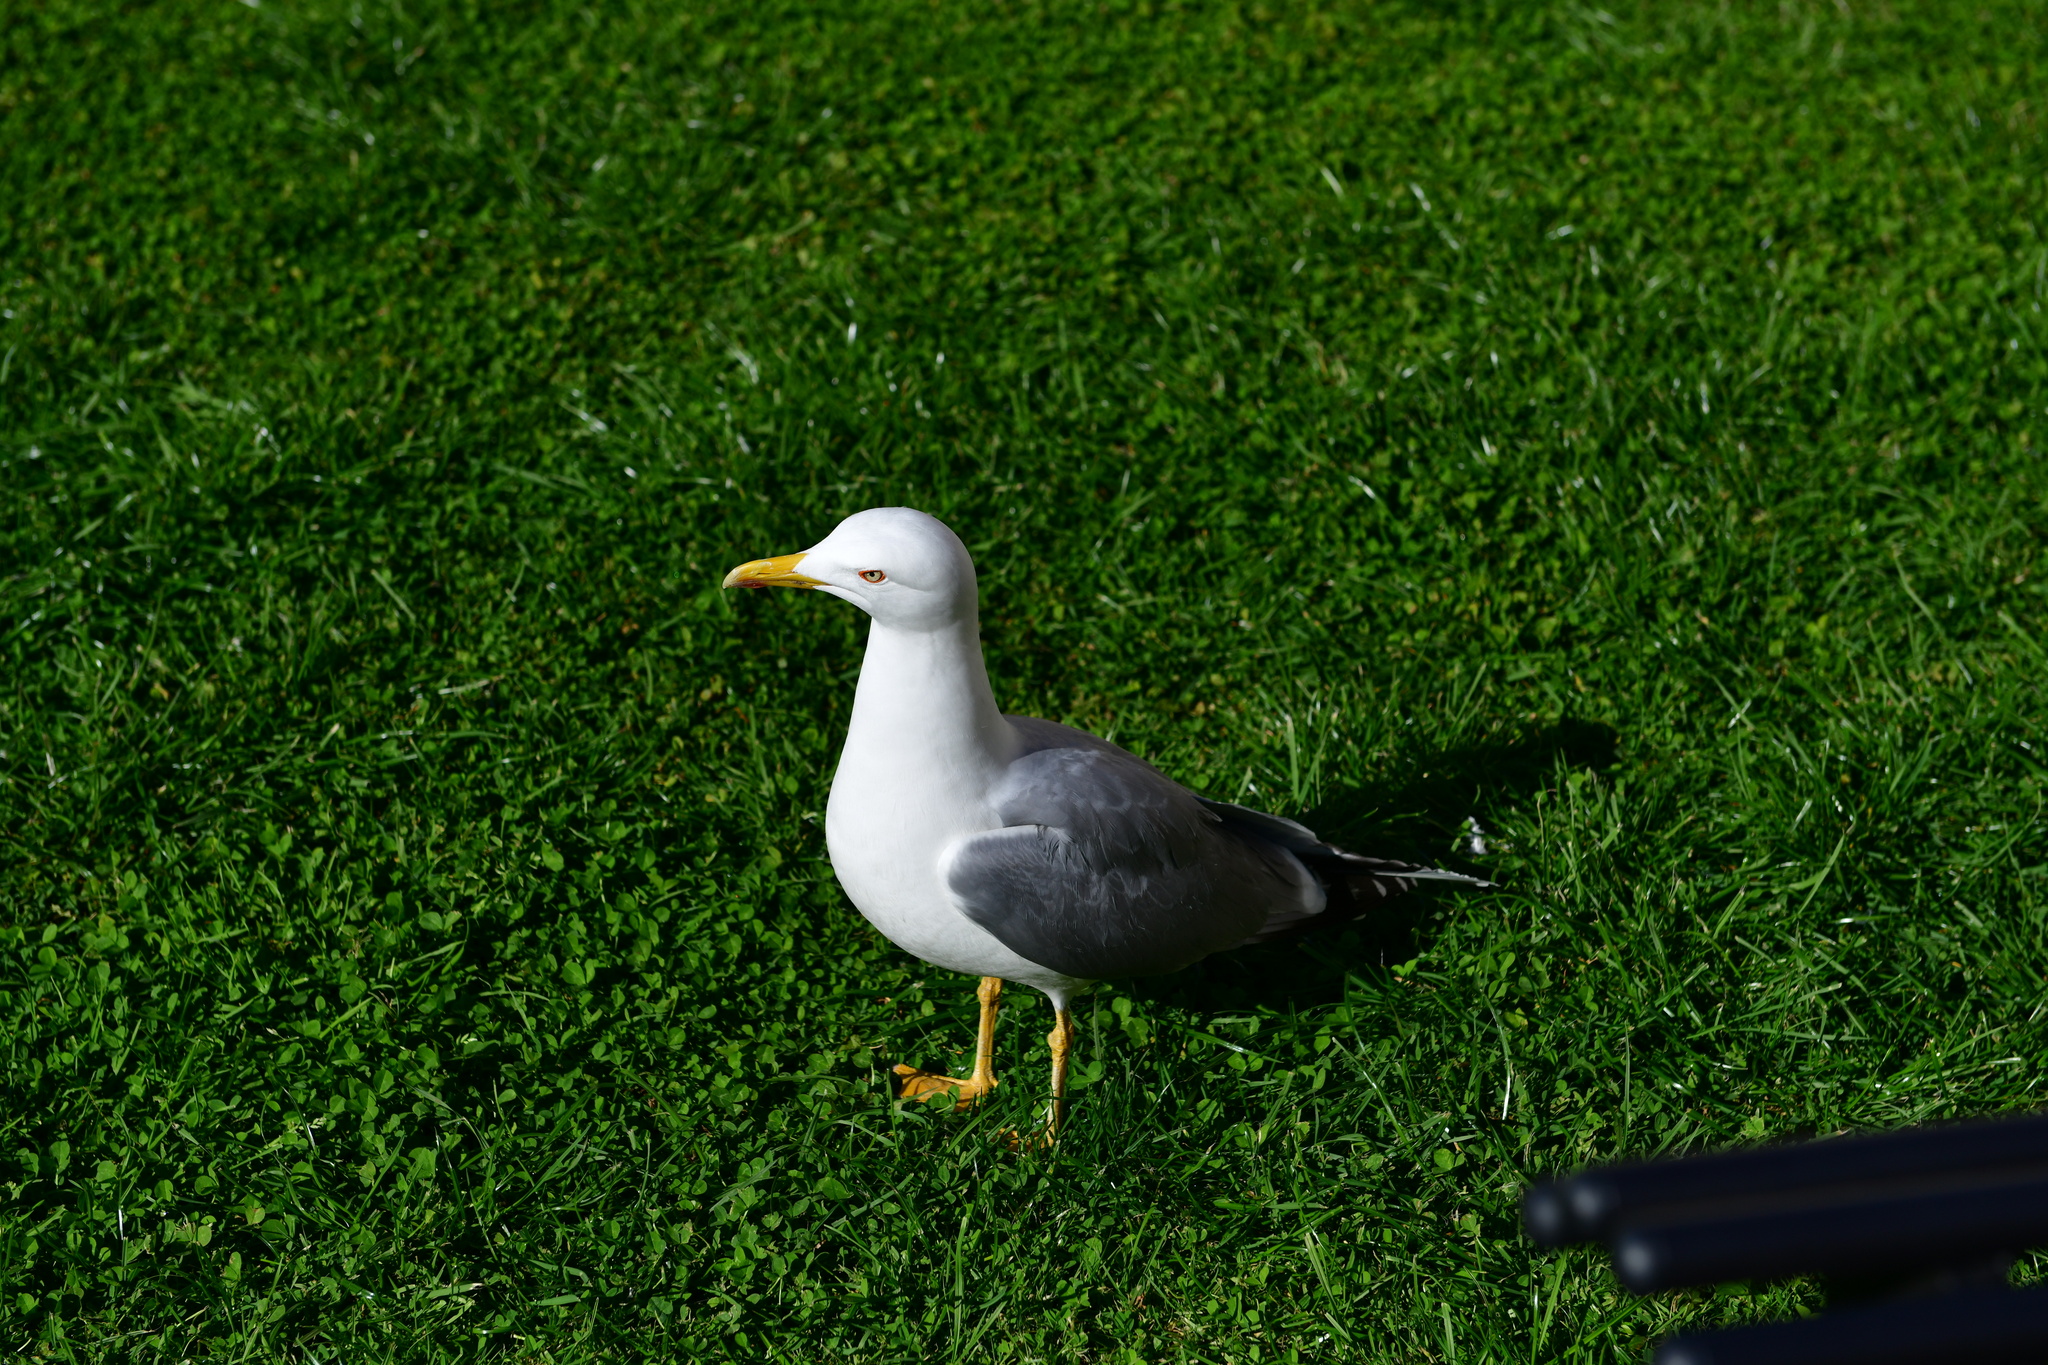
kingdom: Animalia
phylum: Chordata
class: Aves
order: Charadriiformes
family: Laridae
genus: Larus
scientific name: Larus michahellis
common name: Yellow-legged gull
